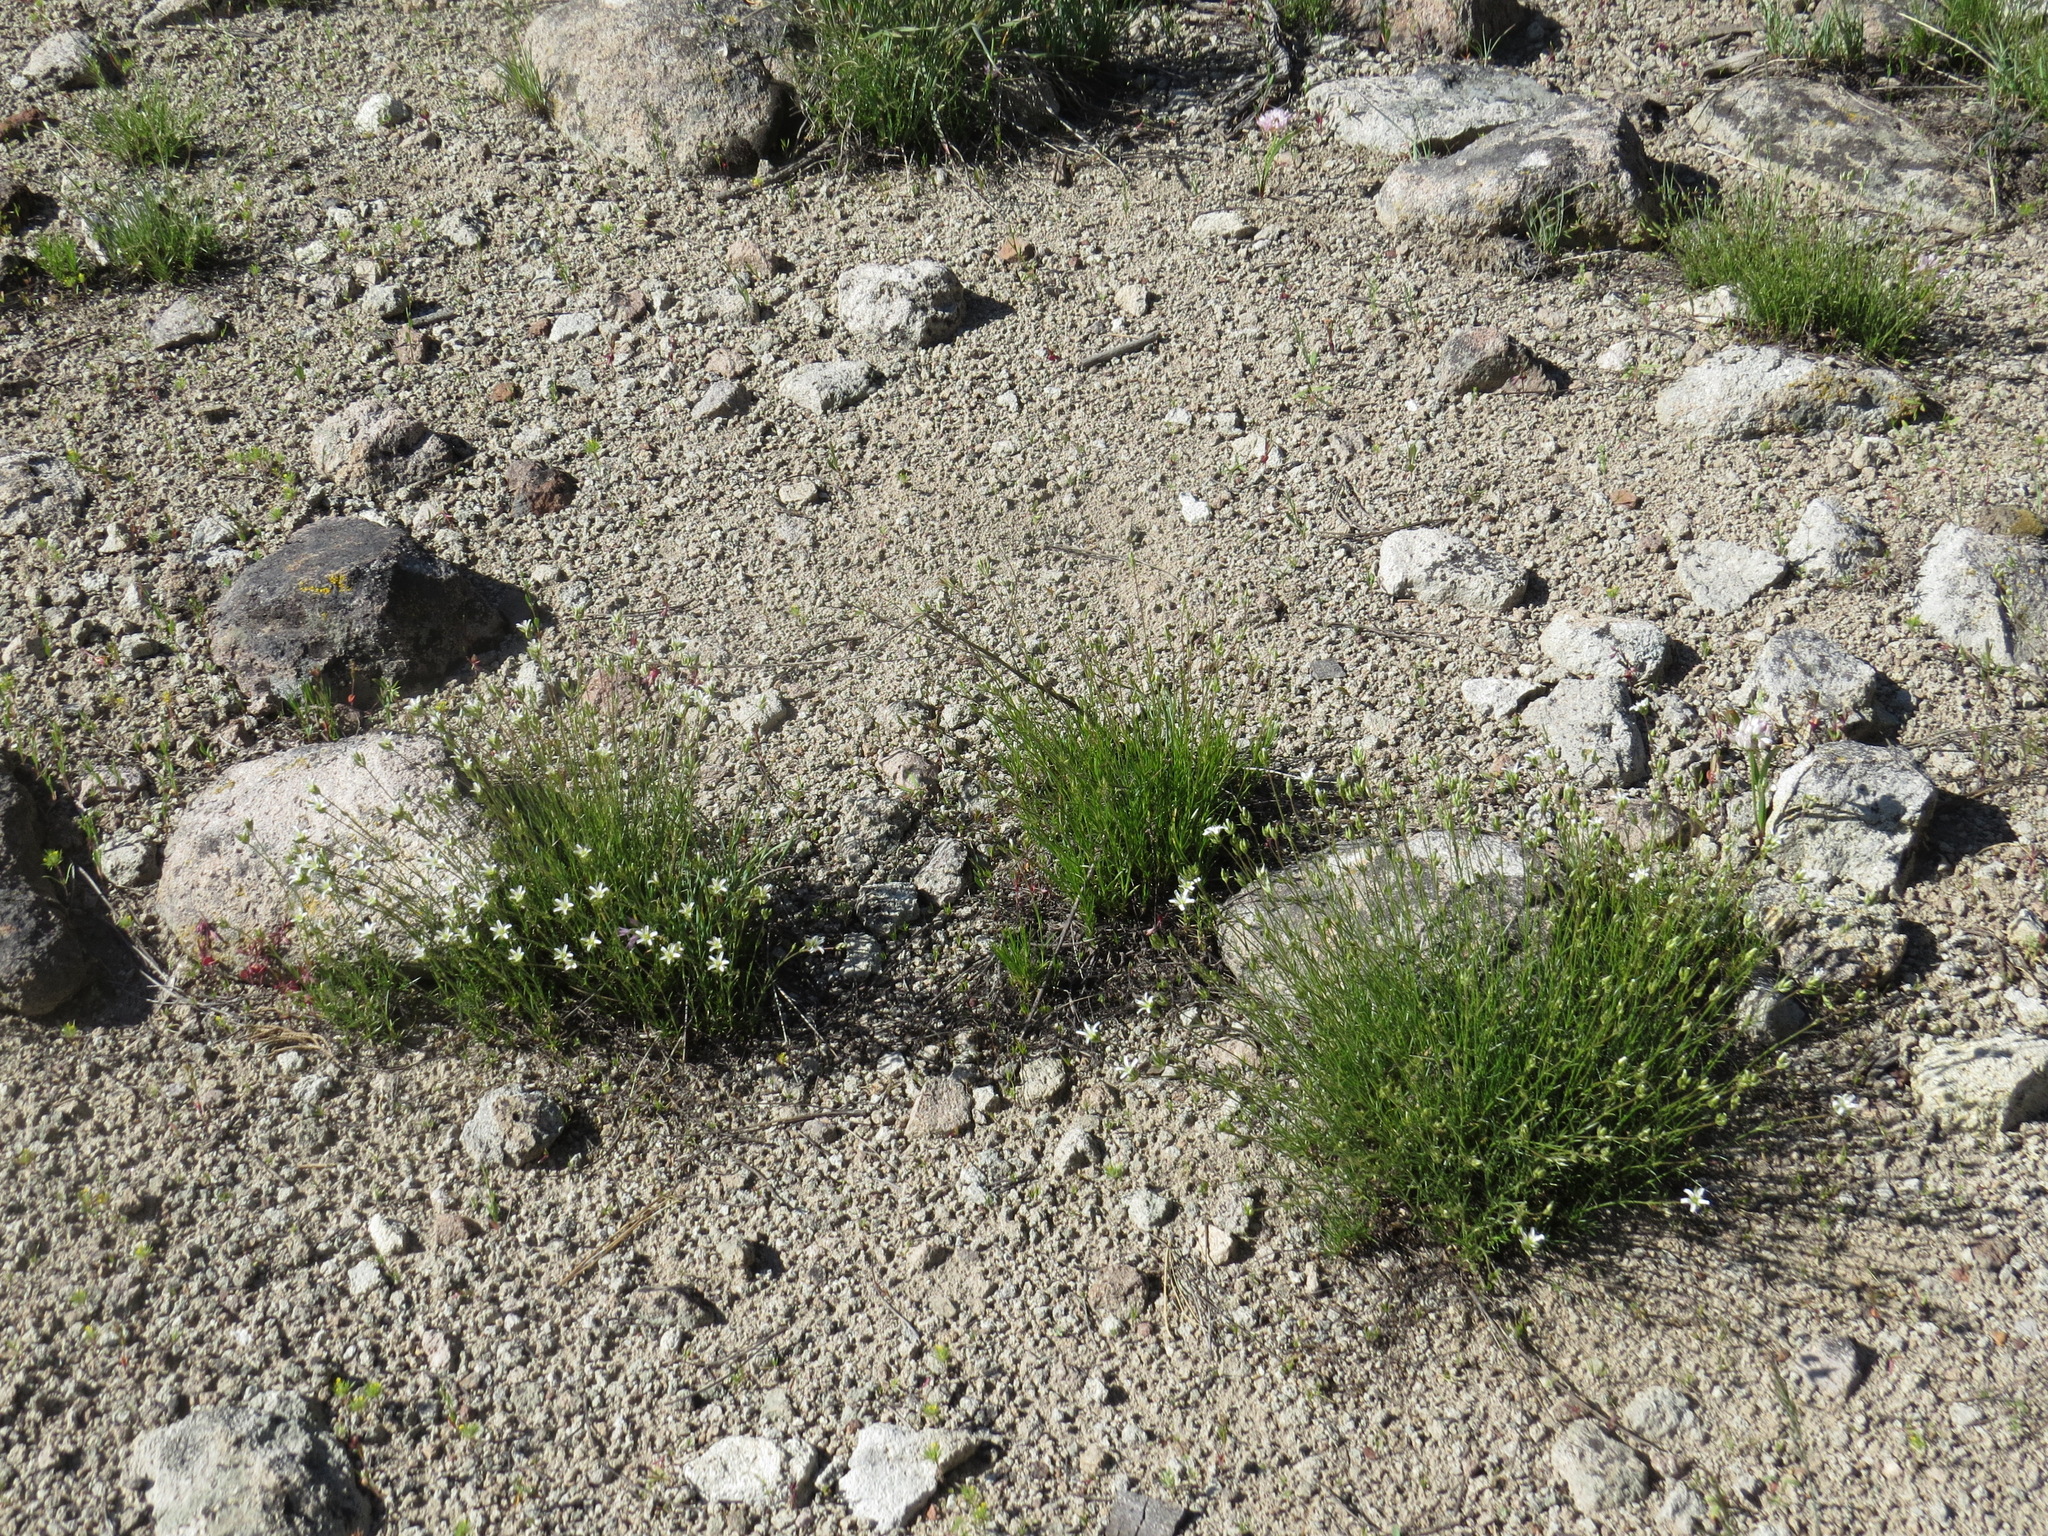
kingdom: Plantae
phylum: Tracheophyta
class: Magnoliopsida
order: Caryophyllales
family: Caryophyllaceae
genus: Eremogone
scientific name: Eremogone kingii
